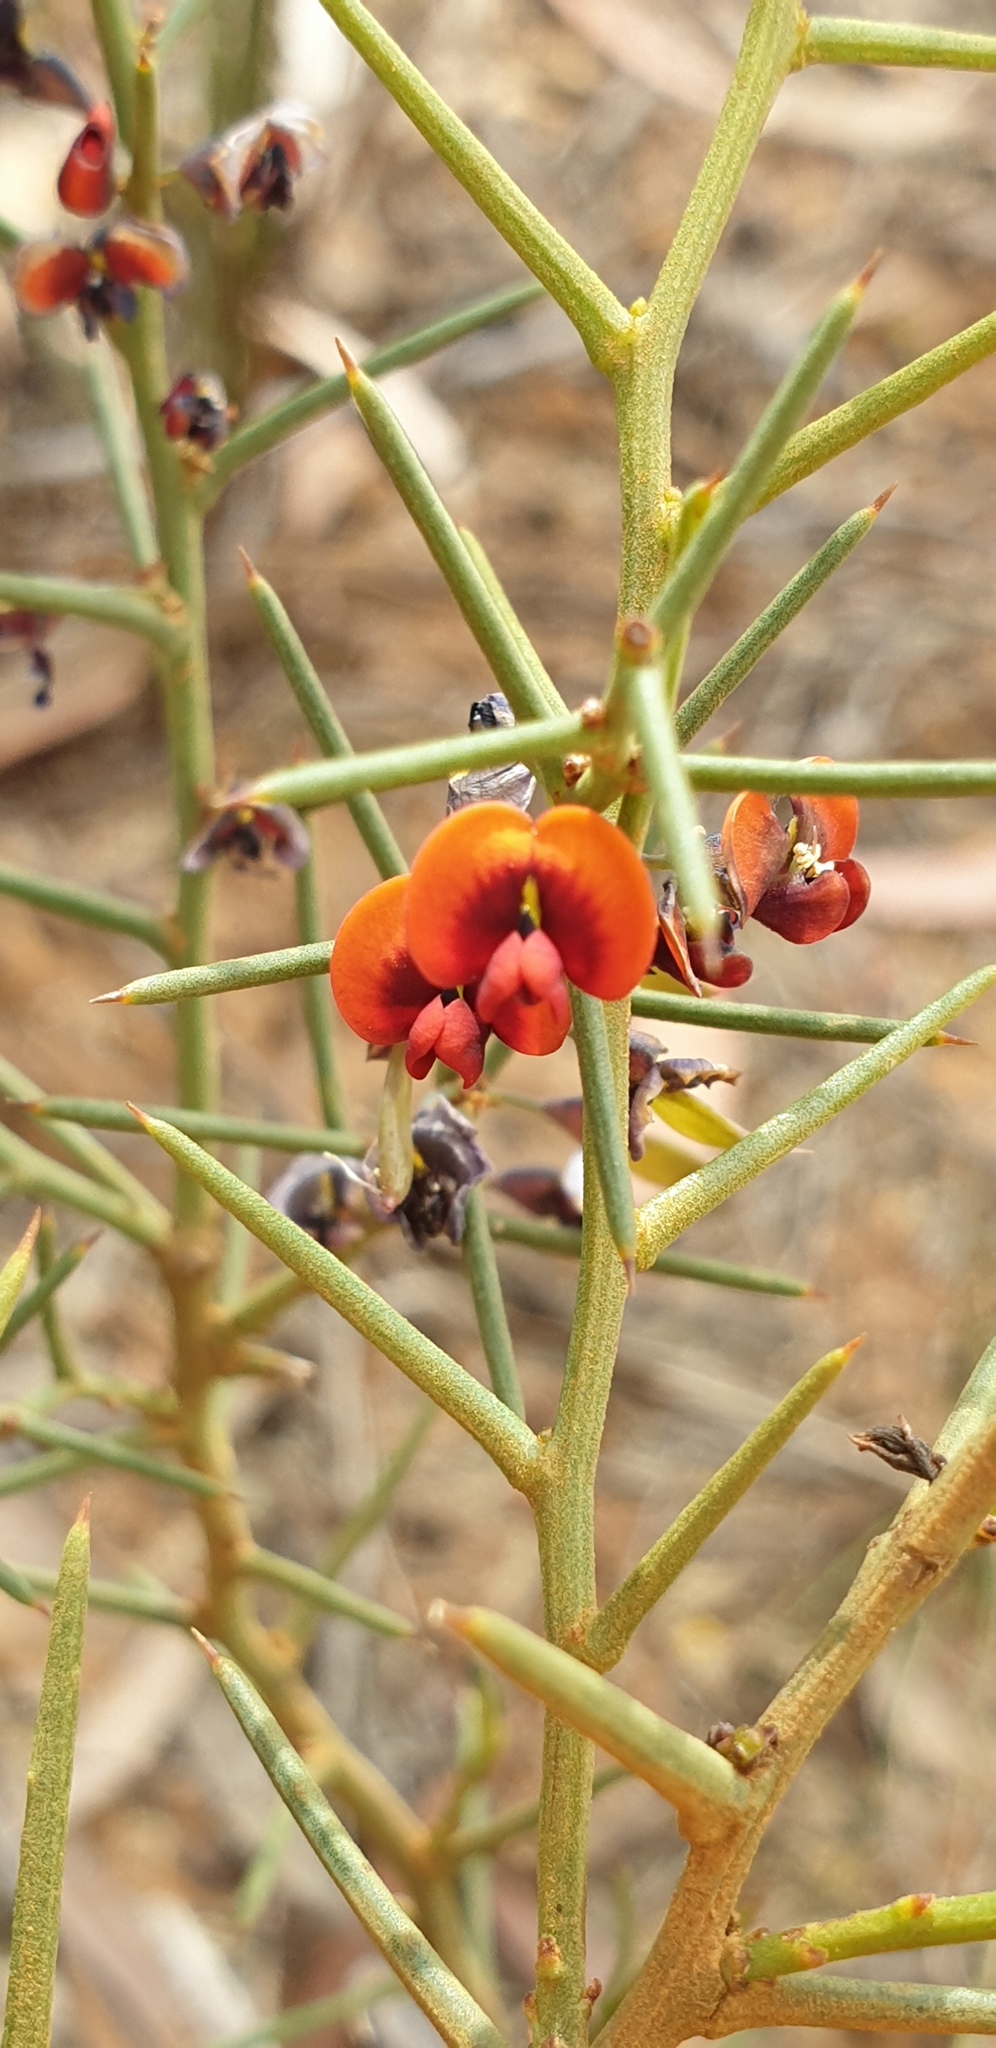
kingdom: Plantae
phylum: Tracheophyta
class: Magnoliopsida
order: Fabales
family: Fabaceae
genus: Daviesia
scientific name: Daviesia asperula
